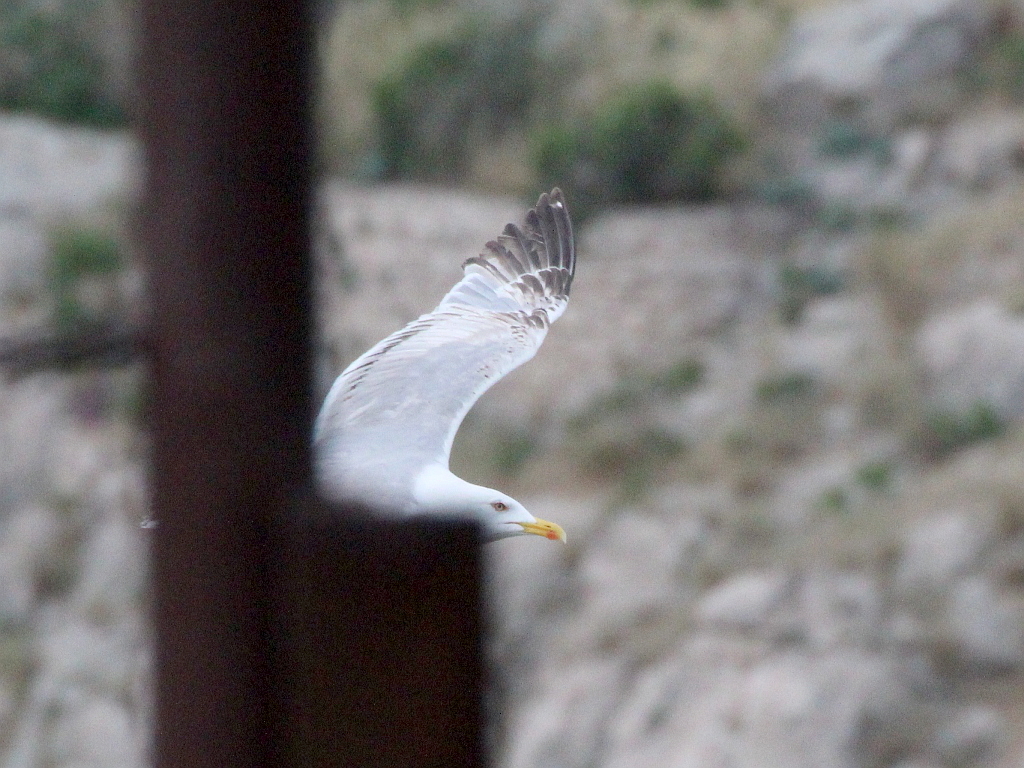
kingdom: Animalia
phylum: Chordata
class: Aves
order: Charadriiformes
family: Laridae
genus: Larus
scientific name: Larus michahellis
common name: Yellow-legged gull
